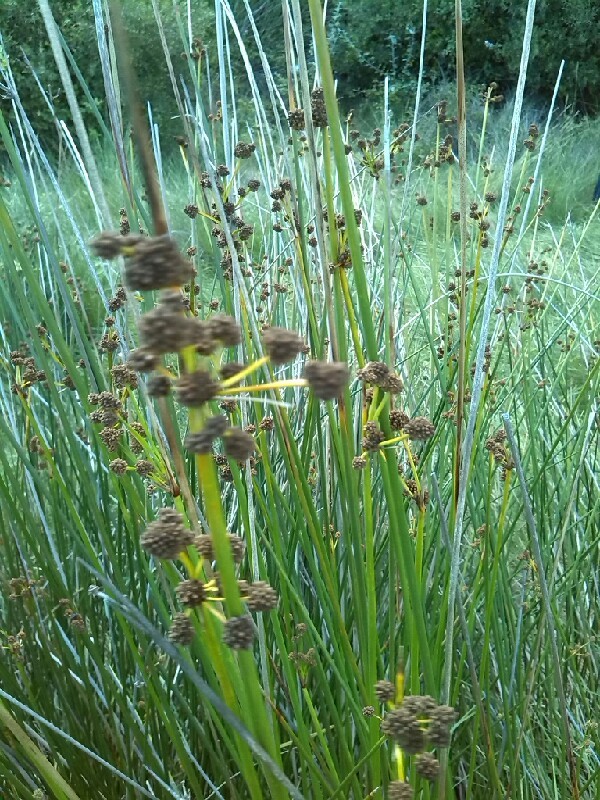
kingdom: Plantae
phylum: Tracheophyta
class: Liliopsida
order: Poales
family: Cyperaceae
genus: Scirpoides
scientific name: Scirpoides holoschoenus
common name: Round-headed club-rush
